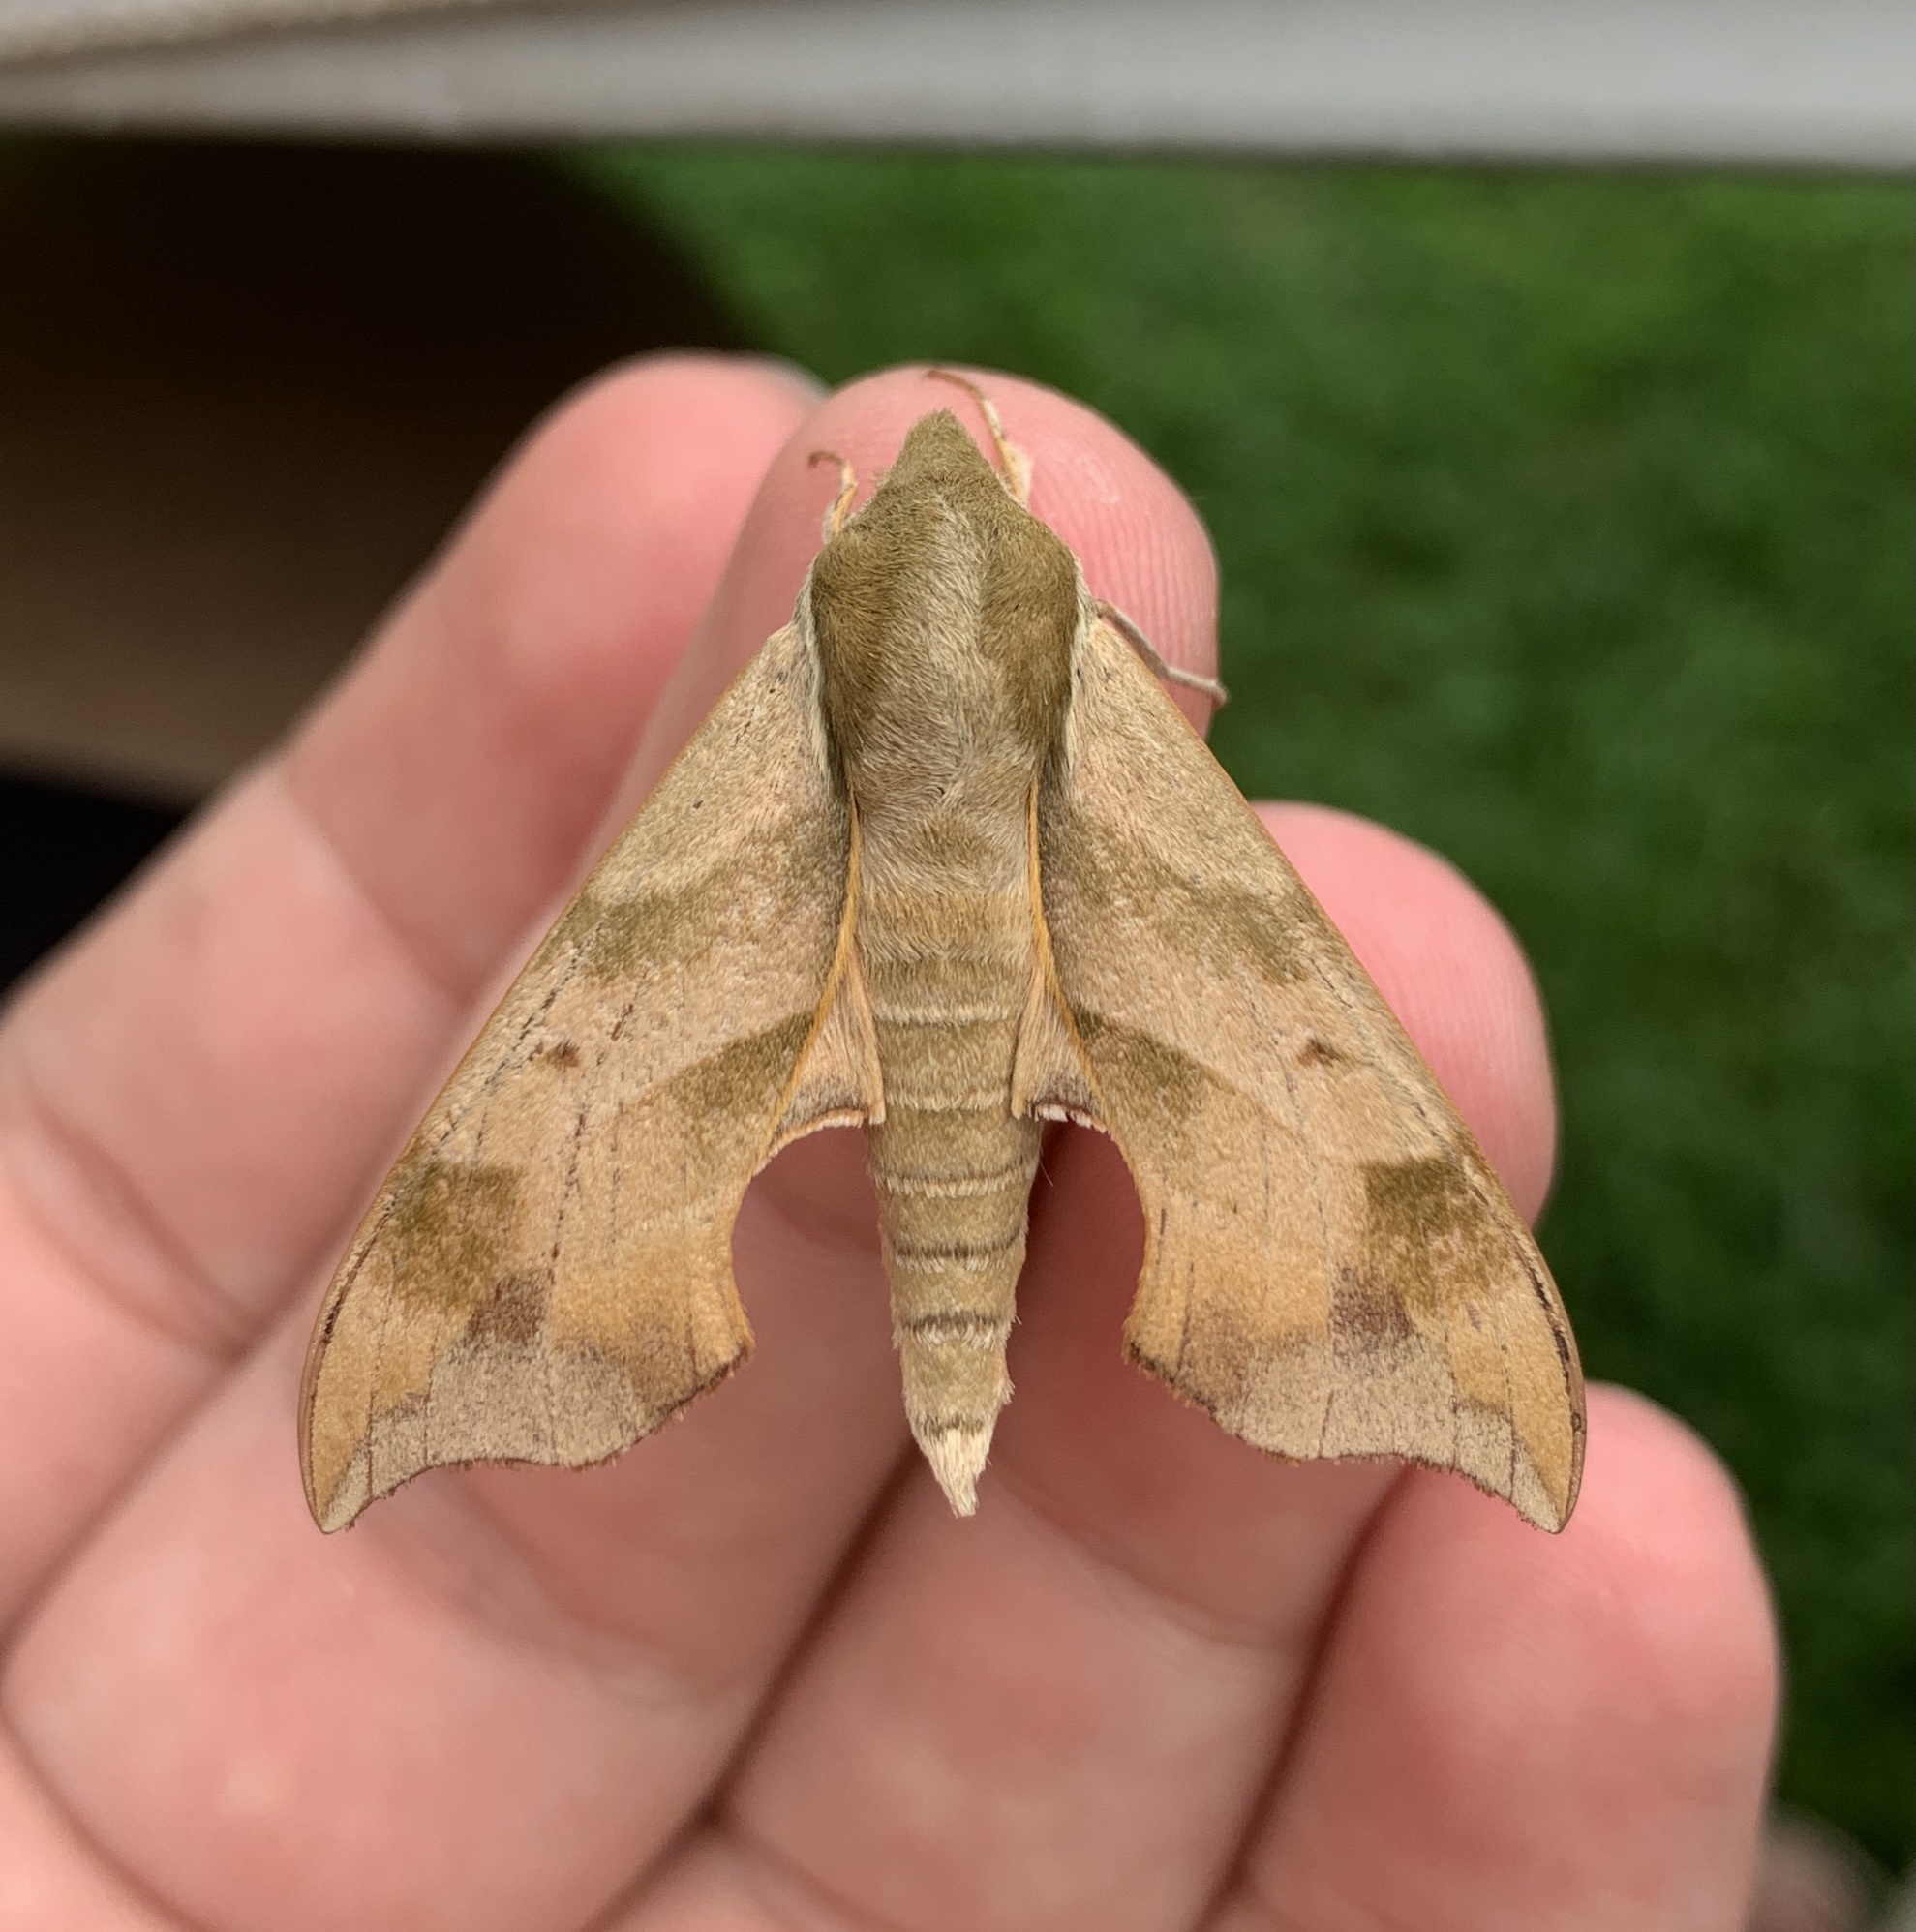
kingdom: Animalia
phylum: Arthropoda
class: Insecta
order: Lepidoptera
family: Sphingidae
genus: Darapsa
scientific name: Darapsa myron
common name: Hog sphinx
